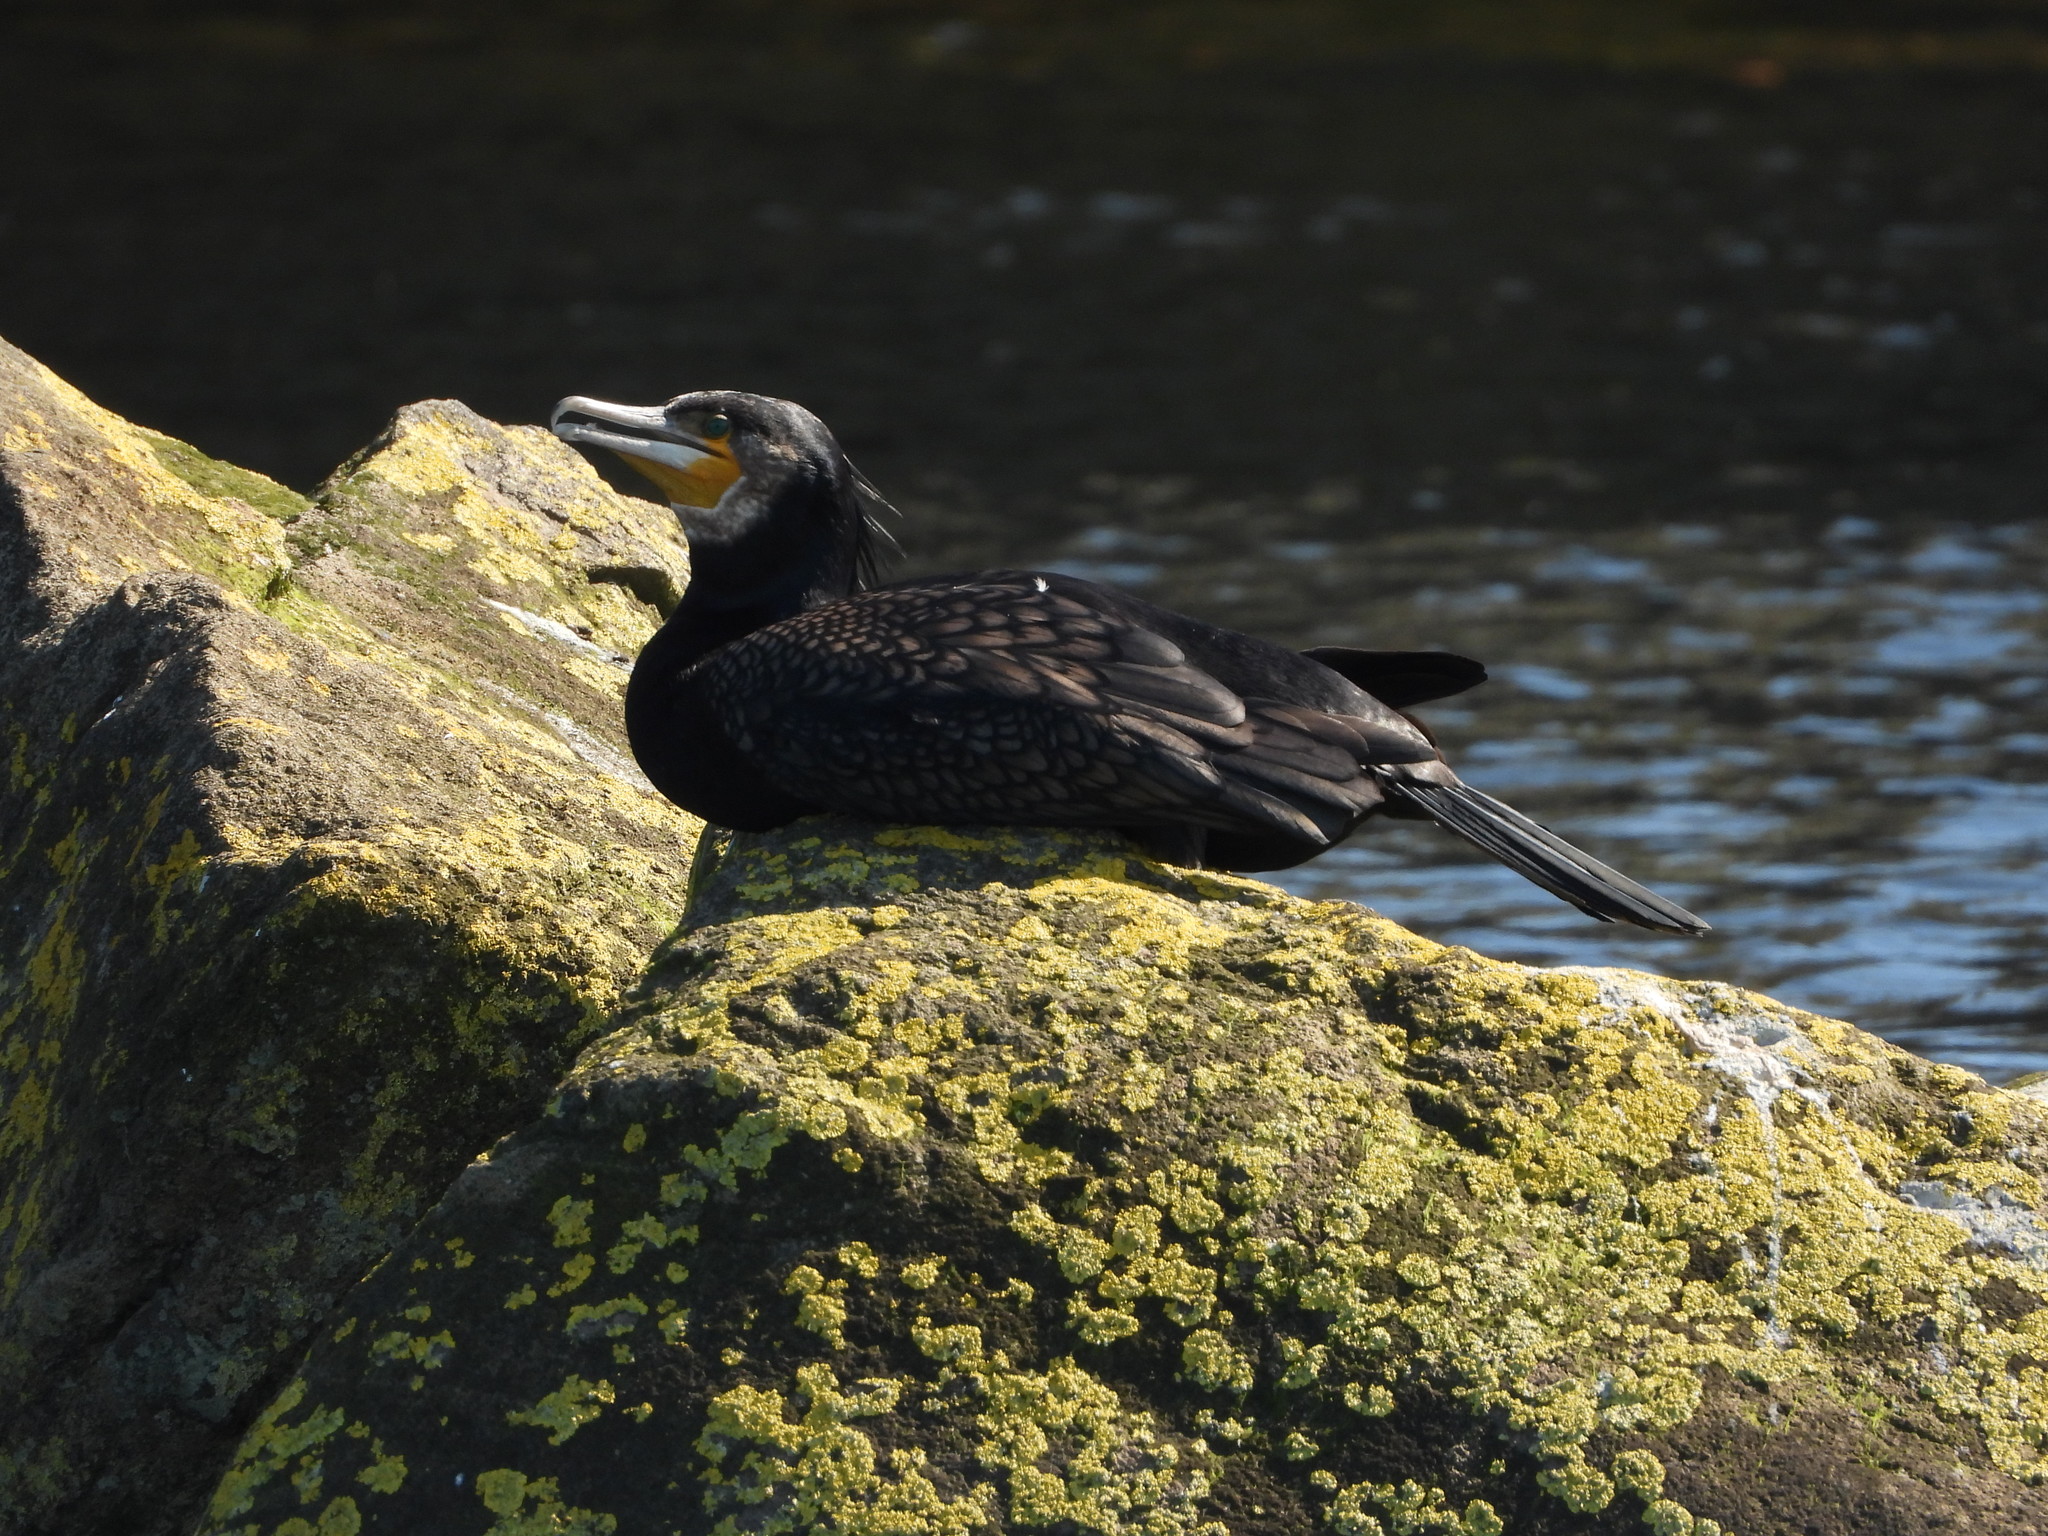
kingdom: Animalia
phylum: Chordata
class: Aves
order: Suliformes
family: Phalacrocoracidae
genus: Phalacrocorax
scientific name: Phalacrocorax carbo
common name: Great cormorant
